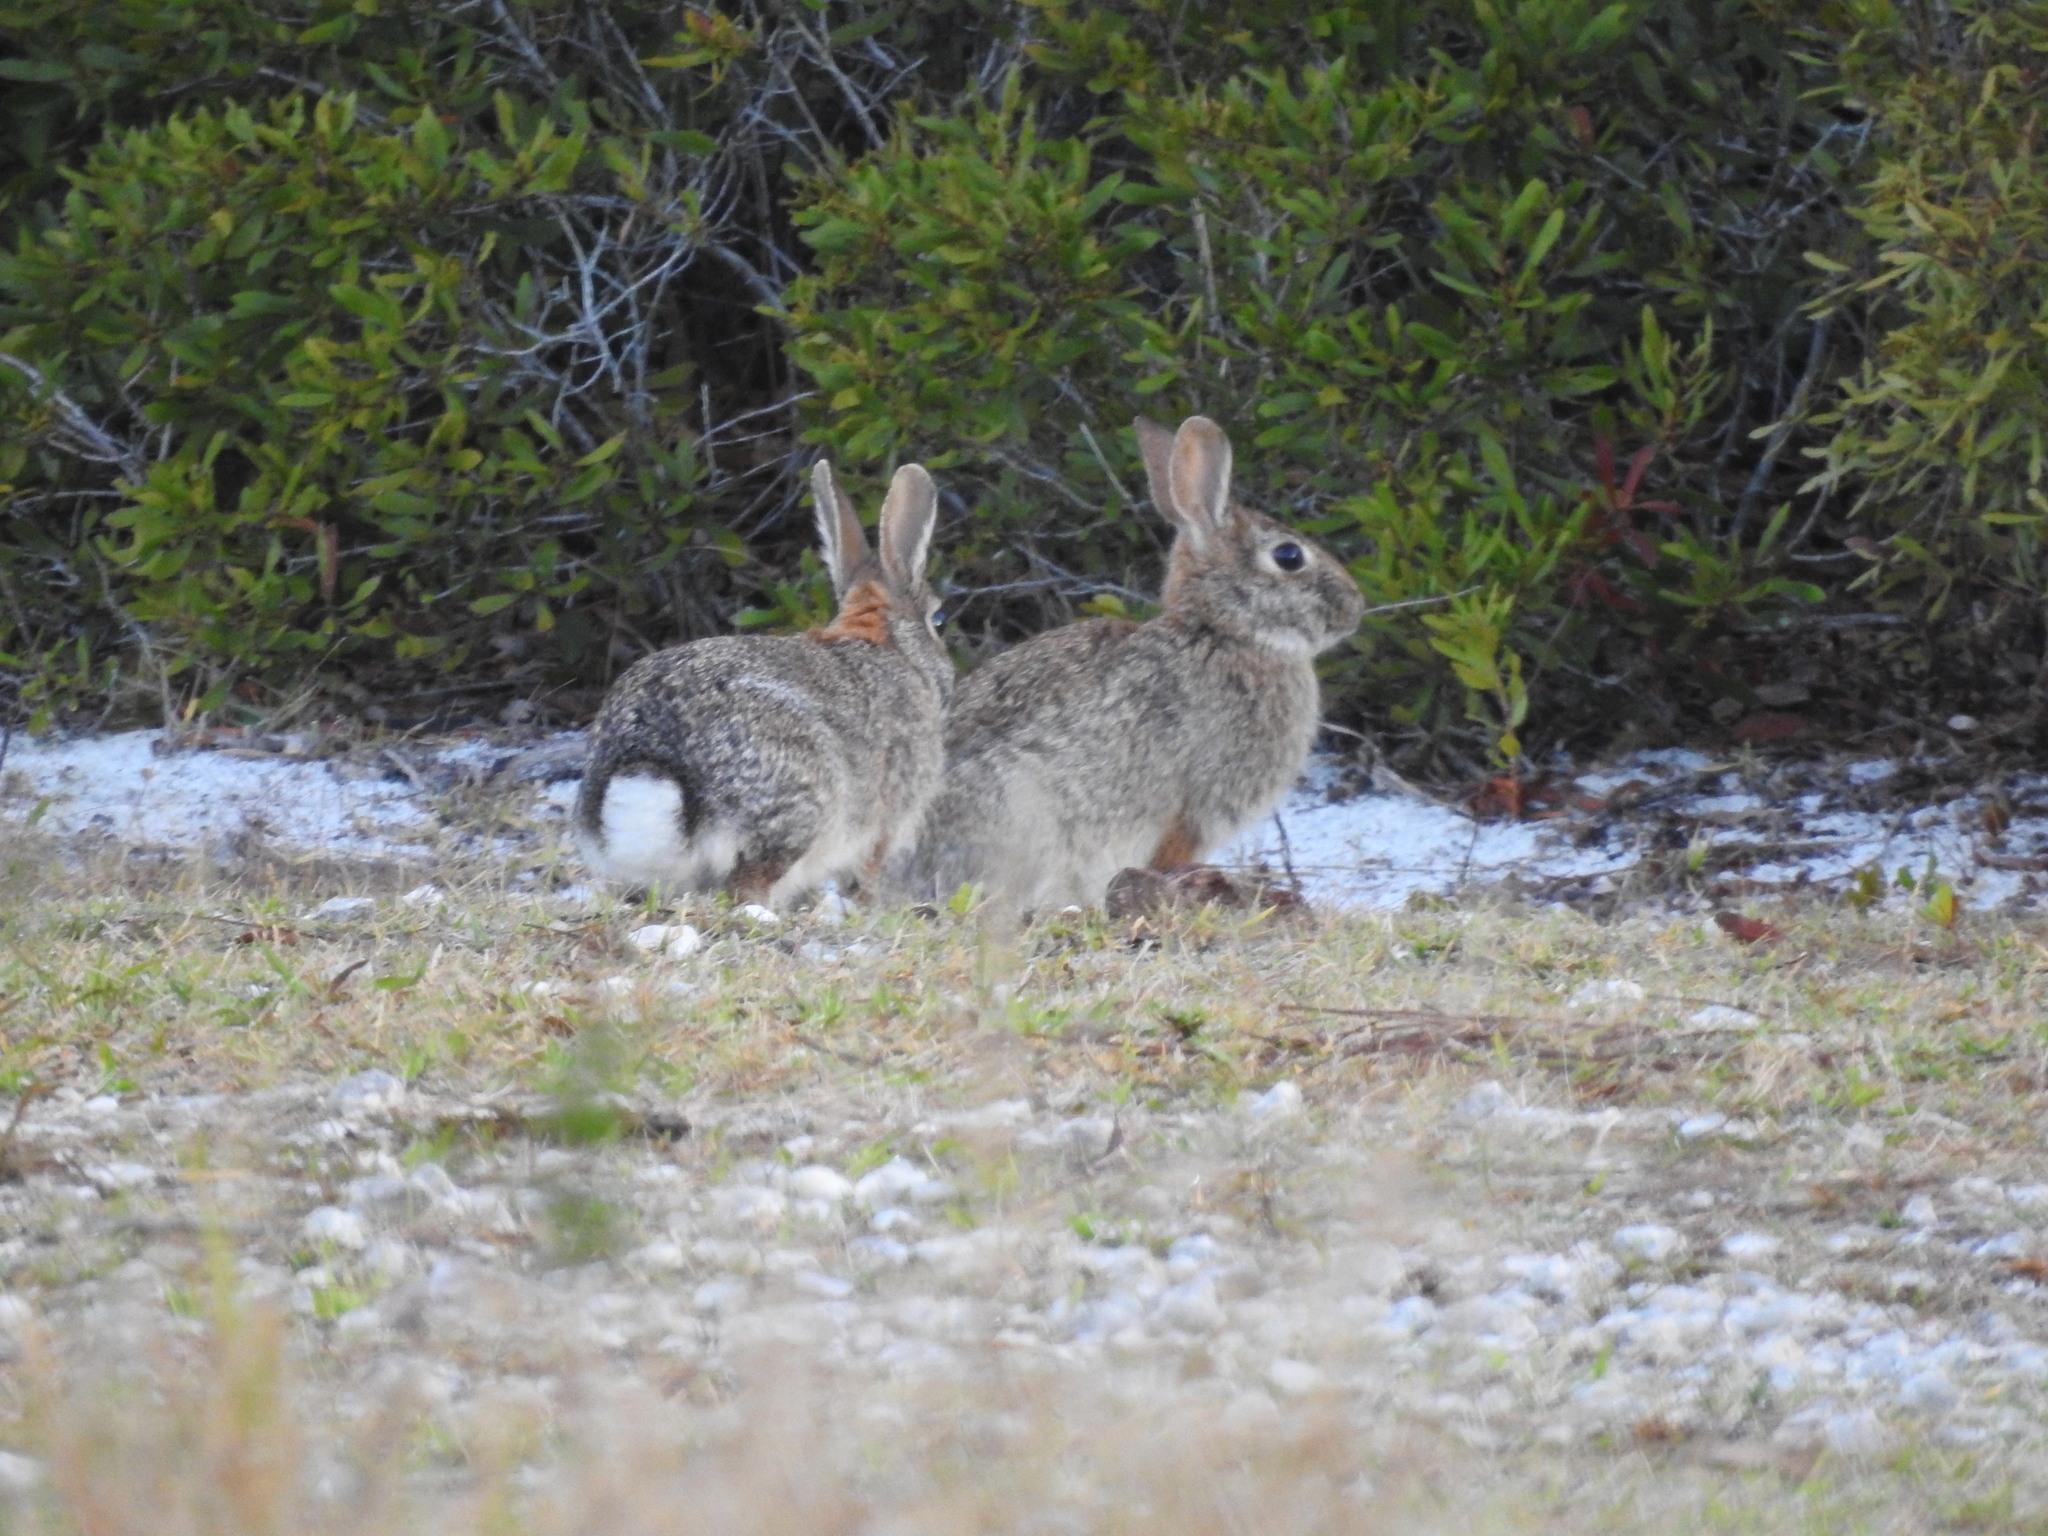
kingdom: Animalia
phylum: Chordata
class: Mammalia
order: Lagomorpha
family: Leporidae
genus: Sylvilagus
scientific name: Sylvilagus floridanus
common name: Eastern cottontail
